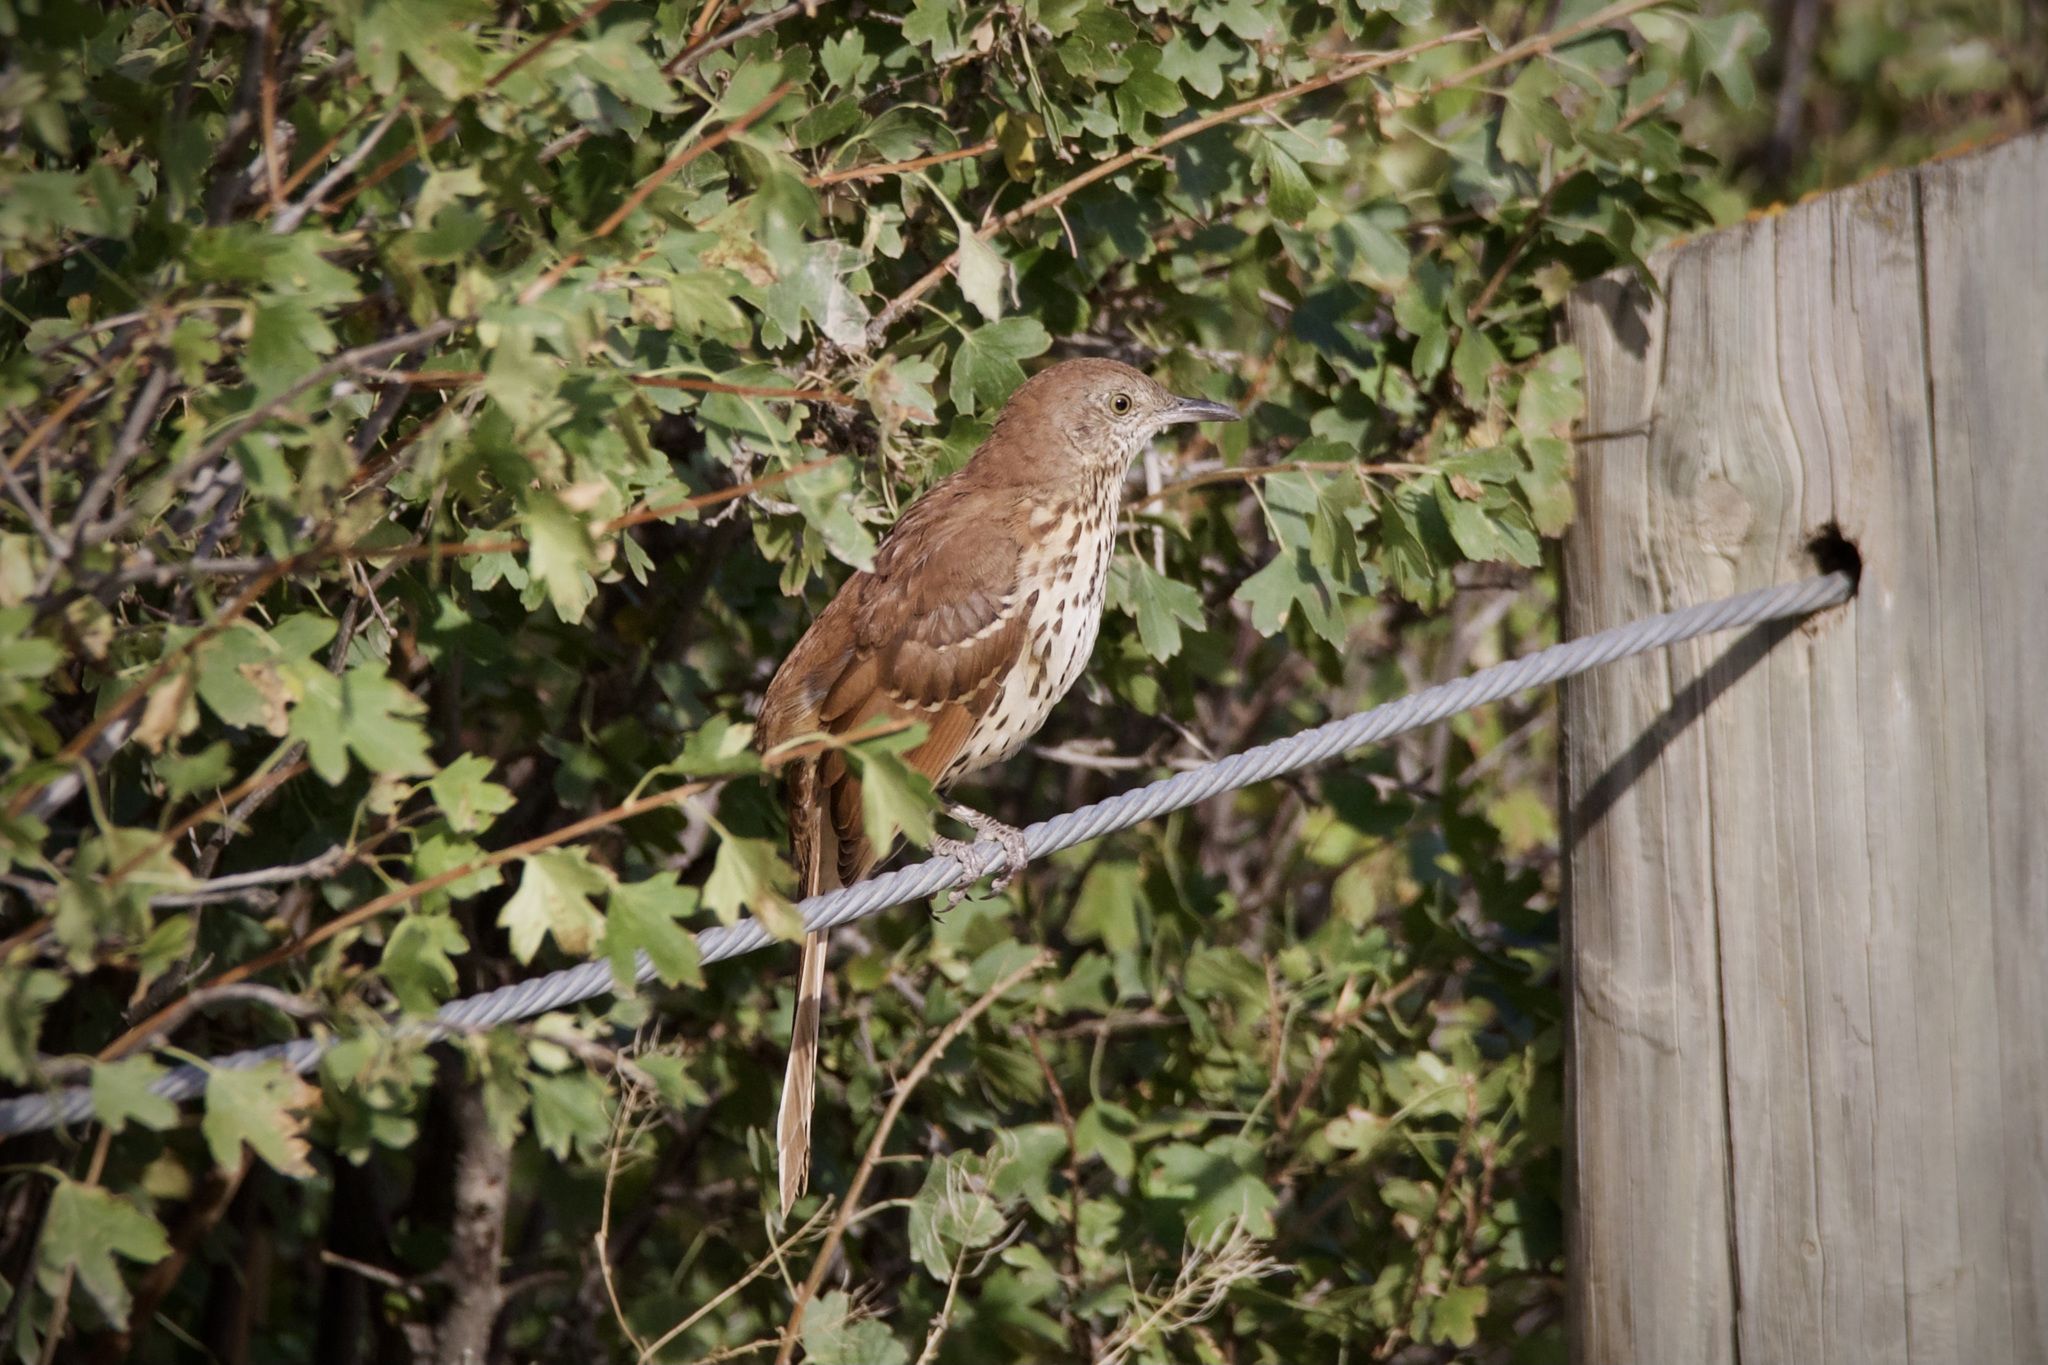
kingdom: Animalia
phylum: Chordata
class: Aves
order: Passeriformes
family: Mimidae
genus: Toxostoma
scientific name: Toxostoma rufum
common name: Brown thrasher
